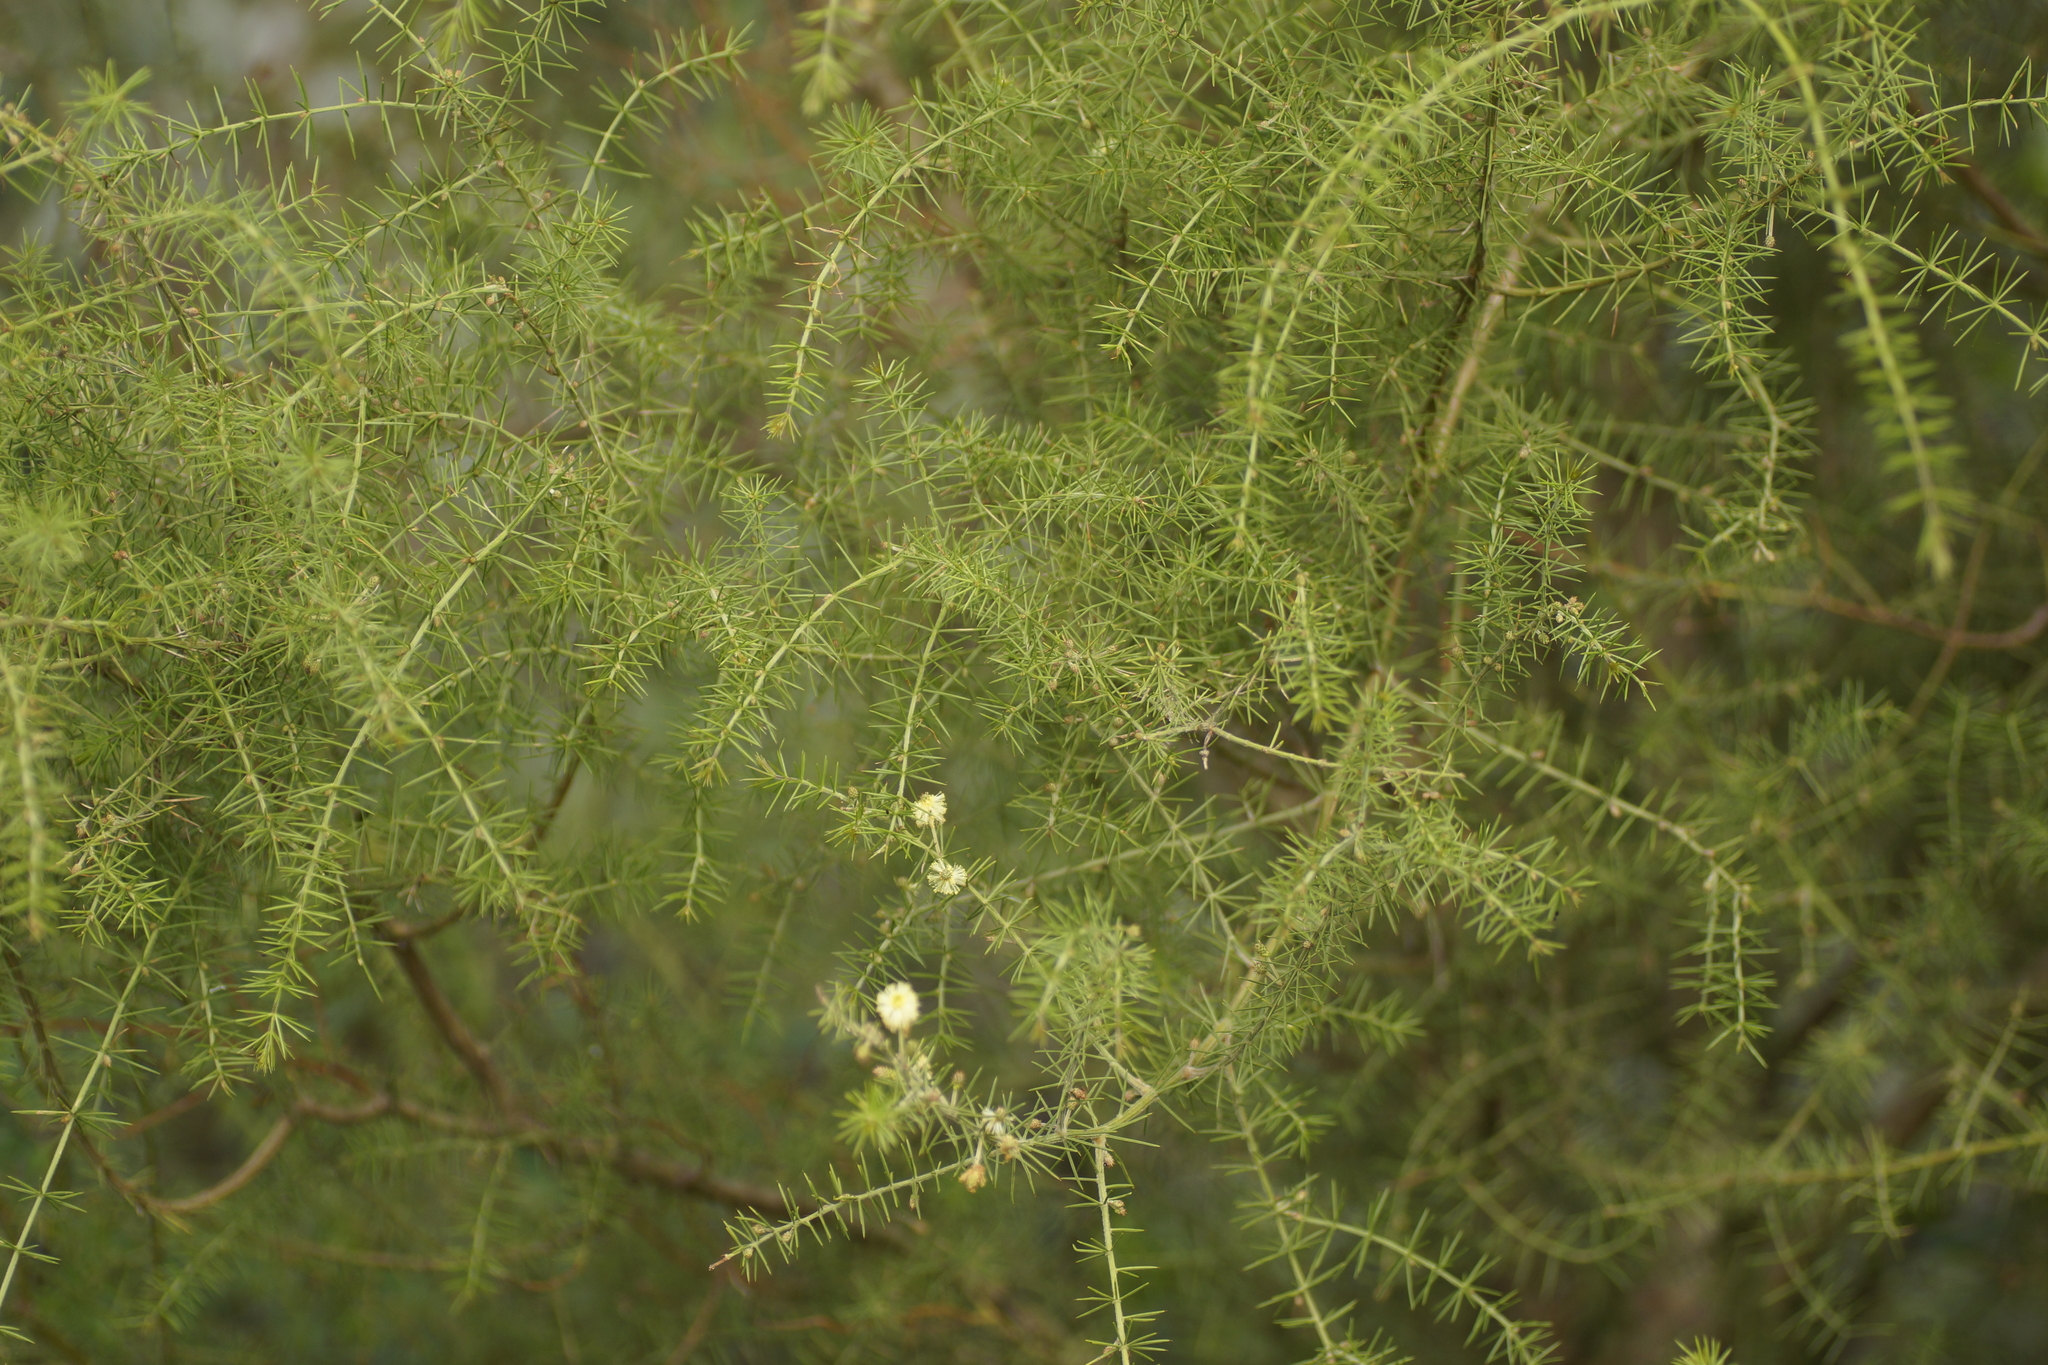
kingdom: Plantae
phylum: Tracheophyta
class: Magnoliopsida
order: Fabales
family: Fabaceae
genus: Acacia
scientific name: Acacia verticillata
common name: Prickly moses
